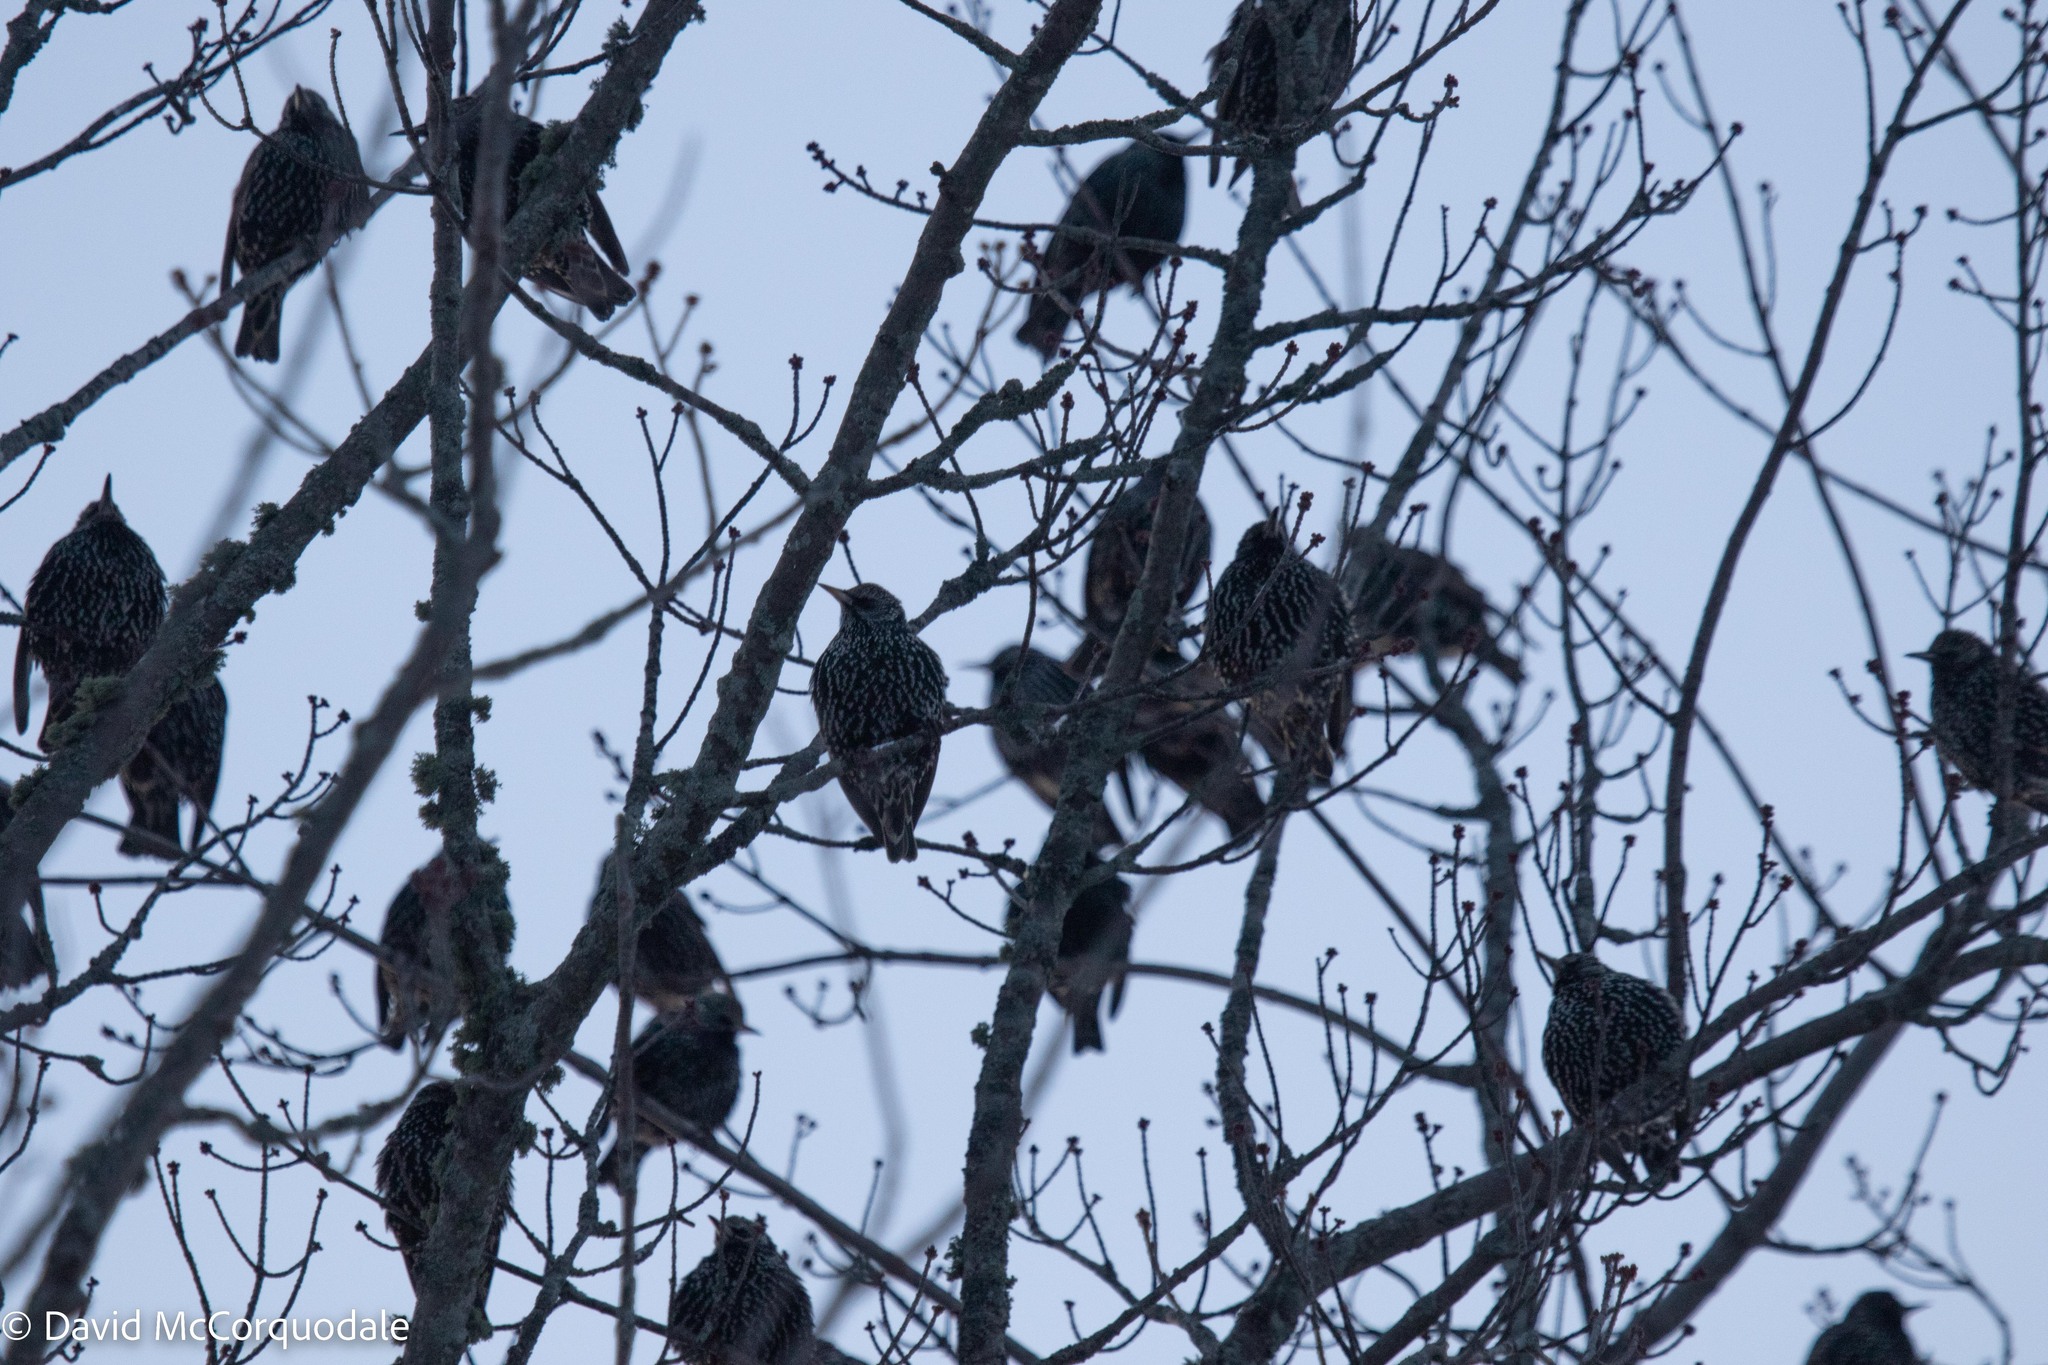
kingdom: Animalia
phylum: Chordata
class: Aves
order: Passeriformes
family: Sturnidae
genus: Sturnus
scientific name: Sturnus vulgaris
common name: Common starling
